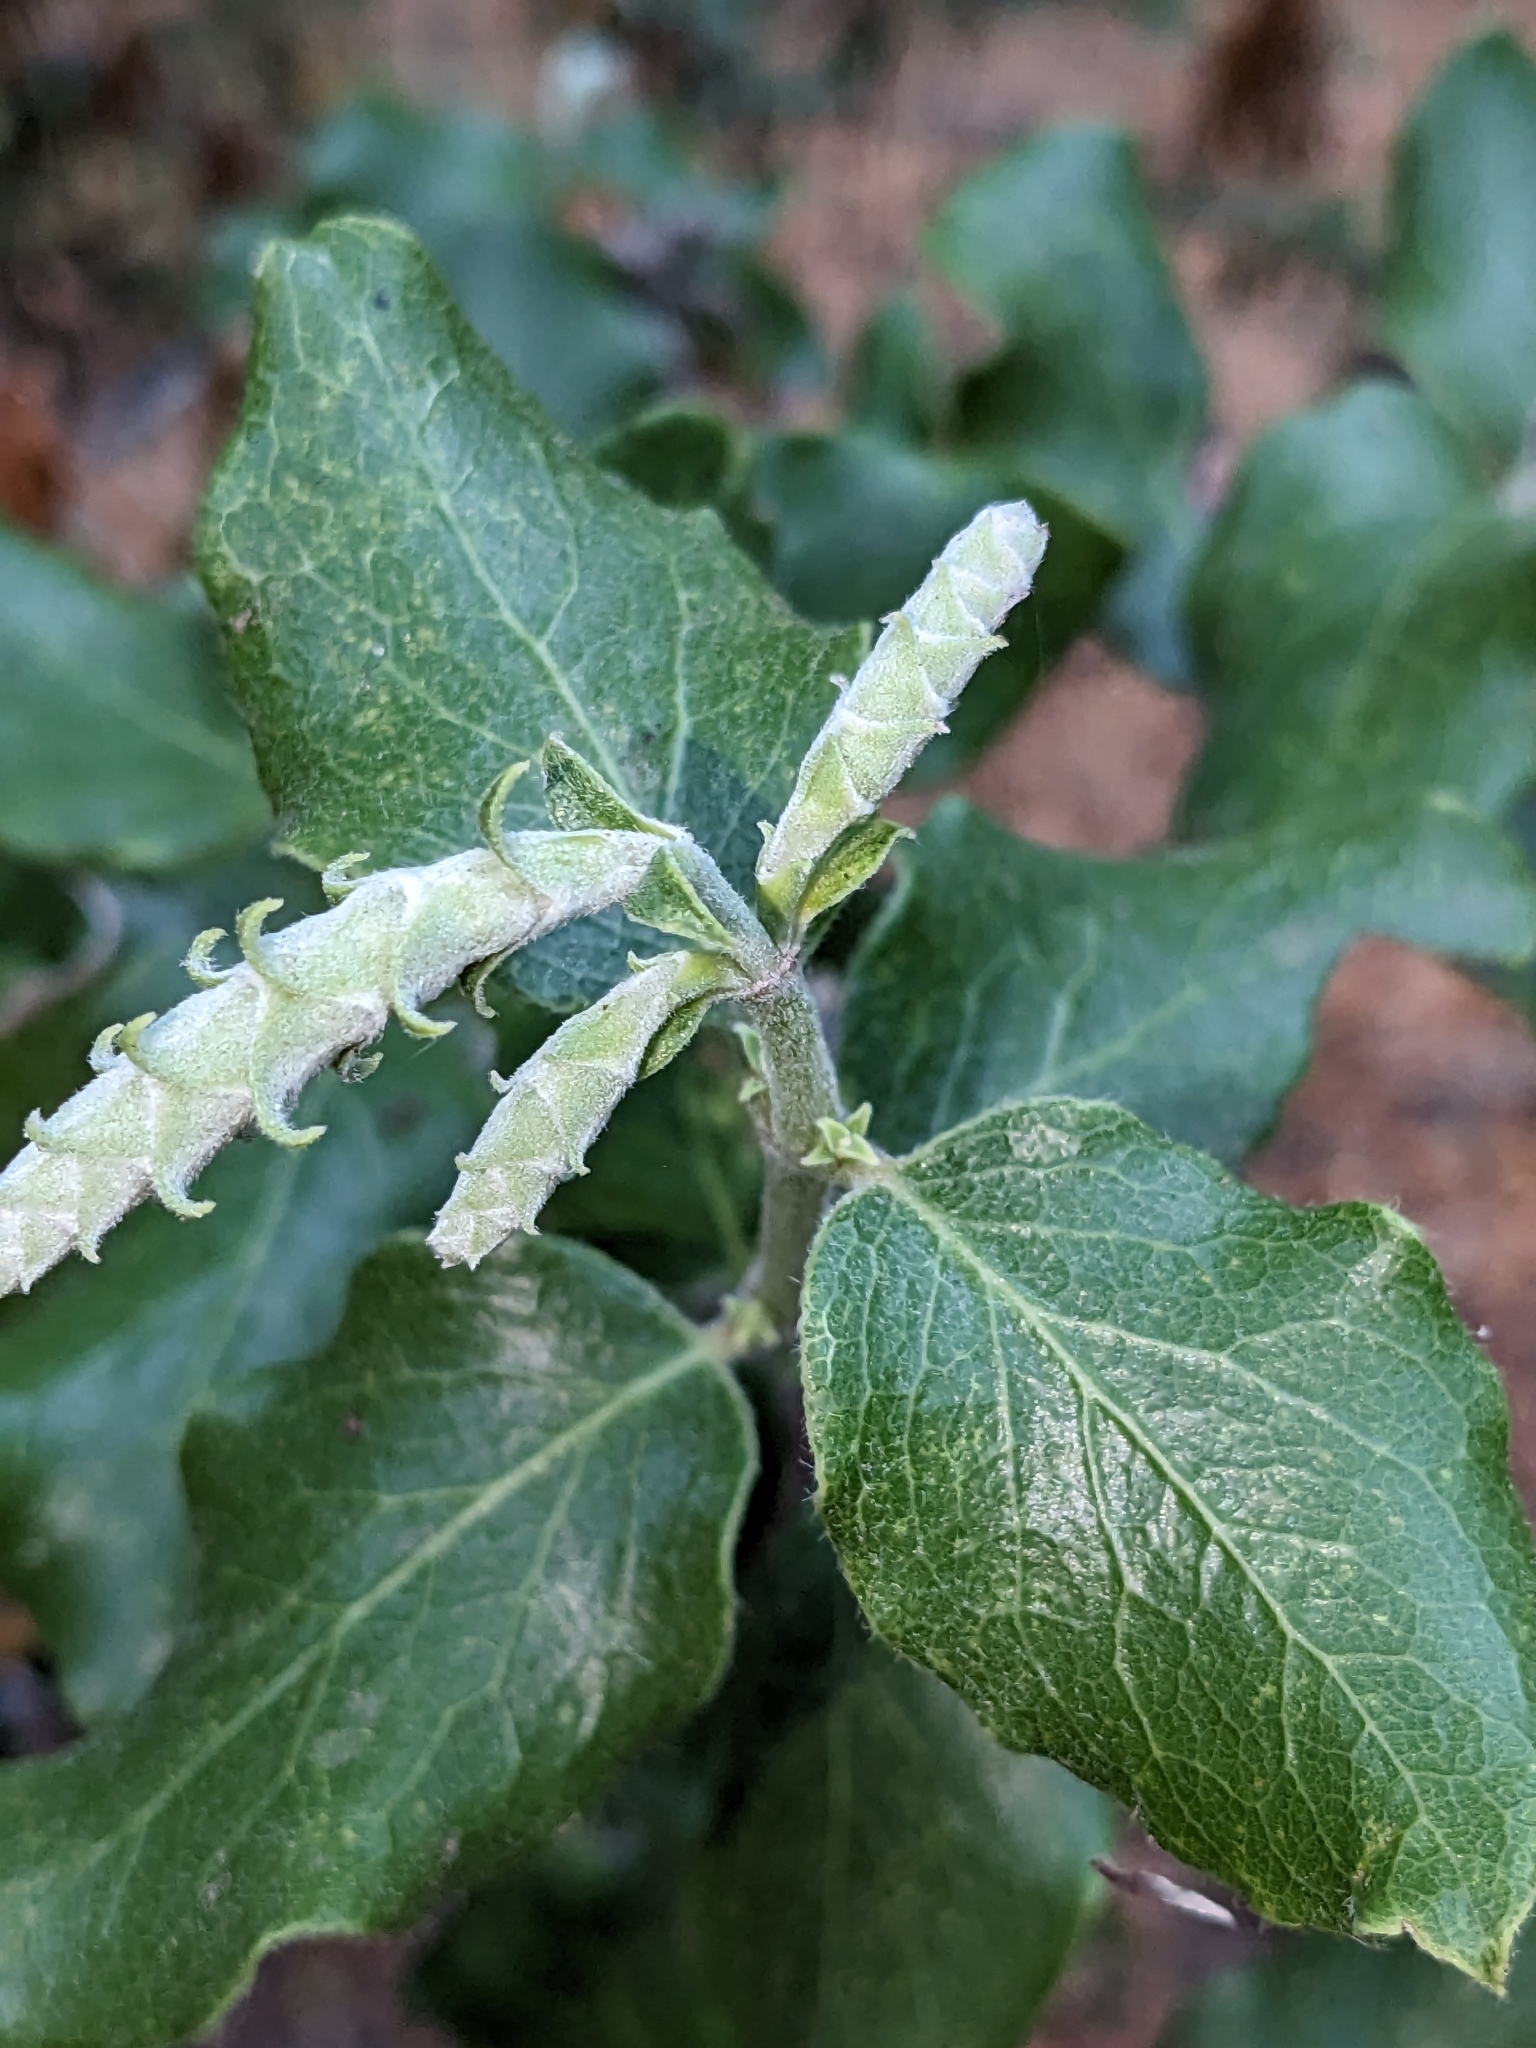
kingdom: Plantae
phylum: Tracheophyta
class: Magnoliopsida
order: Garryales
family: Garryaceae
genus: Garrya
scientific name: Garrya elliptica
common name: Silk-tassel
